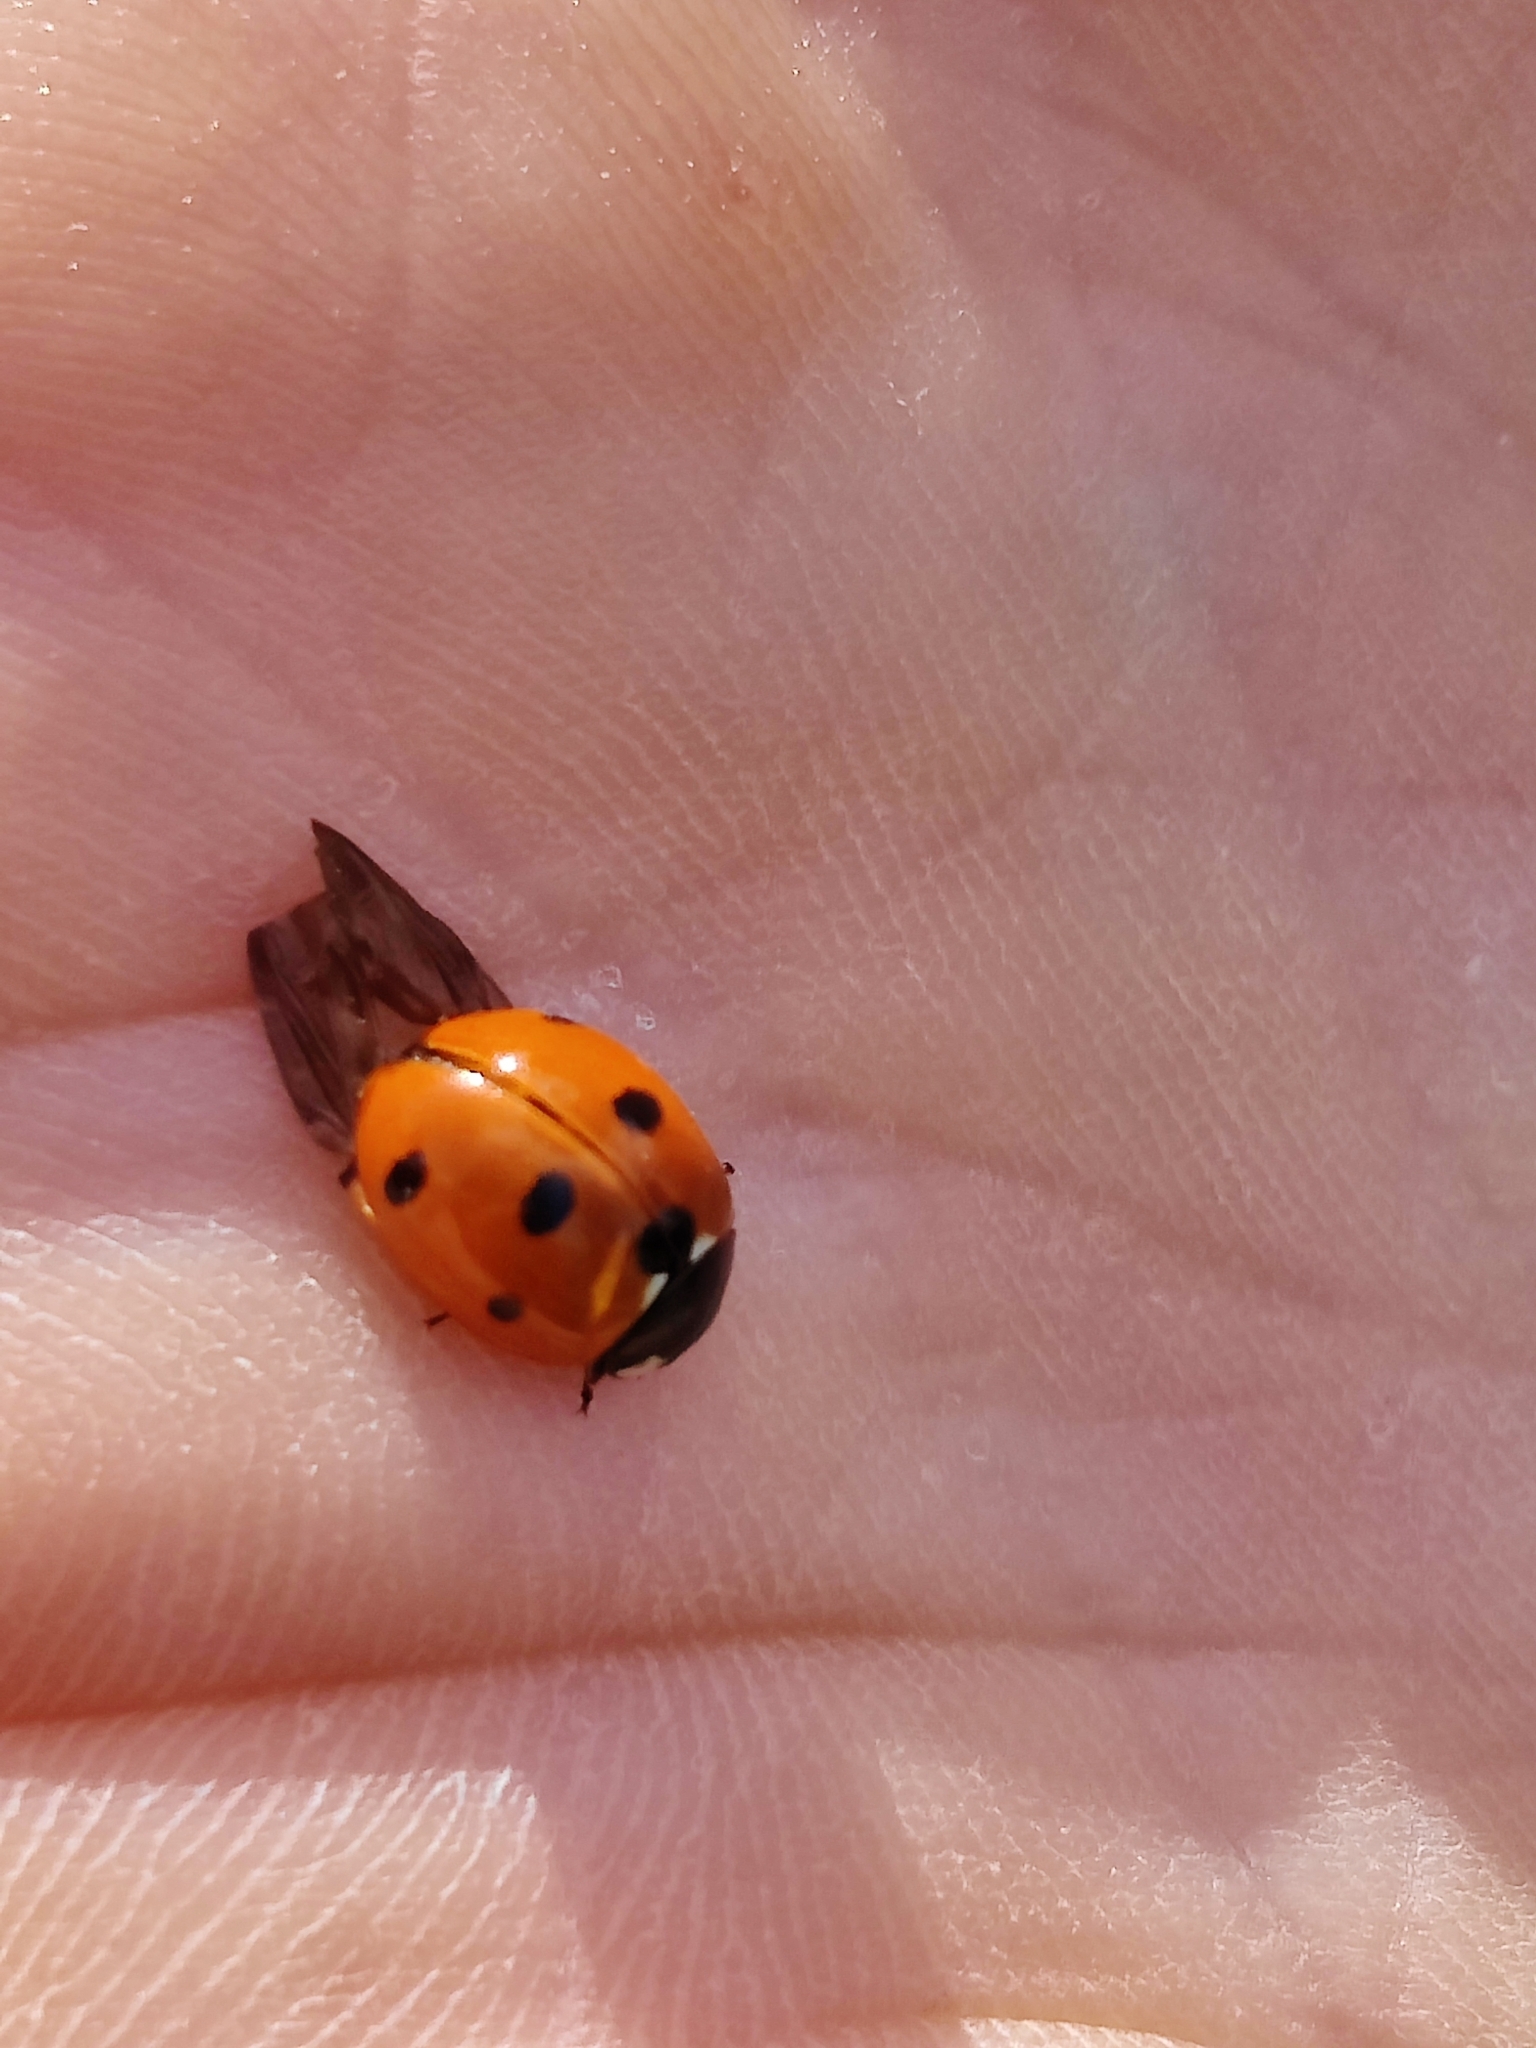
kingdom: Animalia
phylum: Arthropoda
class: Insecta
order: Coleoptera
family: Coccinellidae
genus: Coccinella
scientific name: Coccinella septempunctata
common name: Sevenspotted lady beetle
